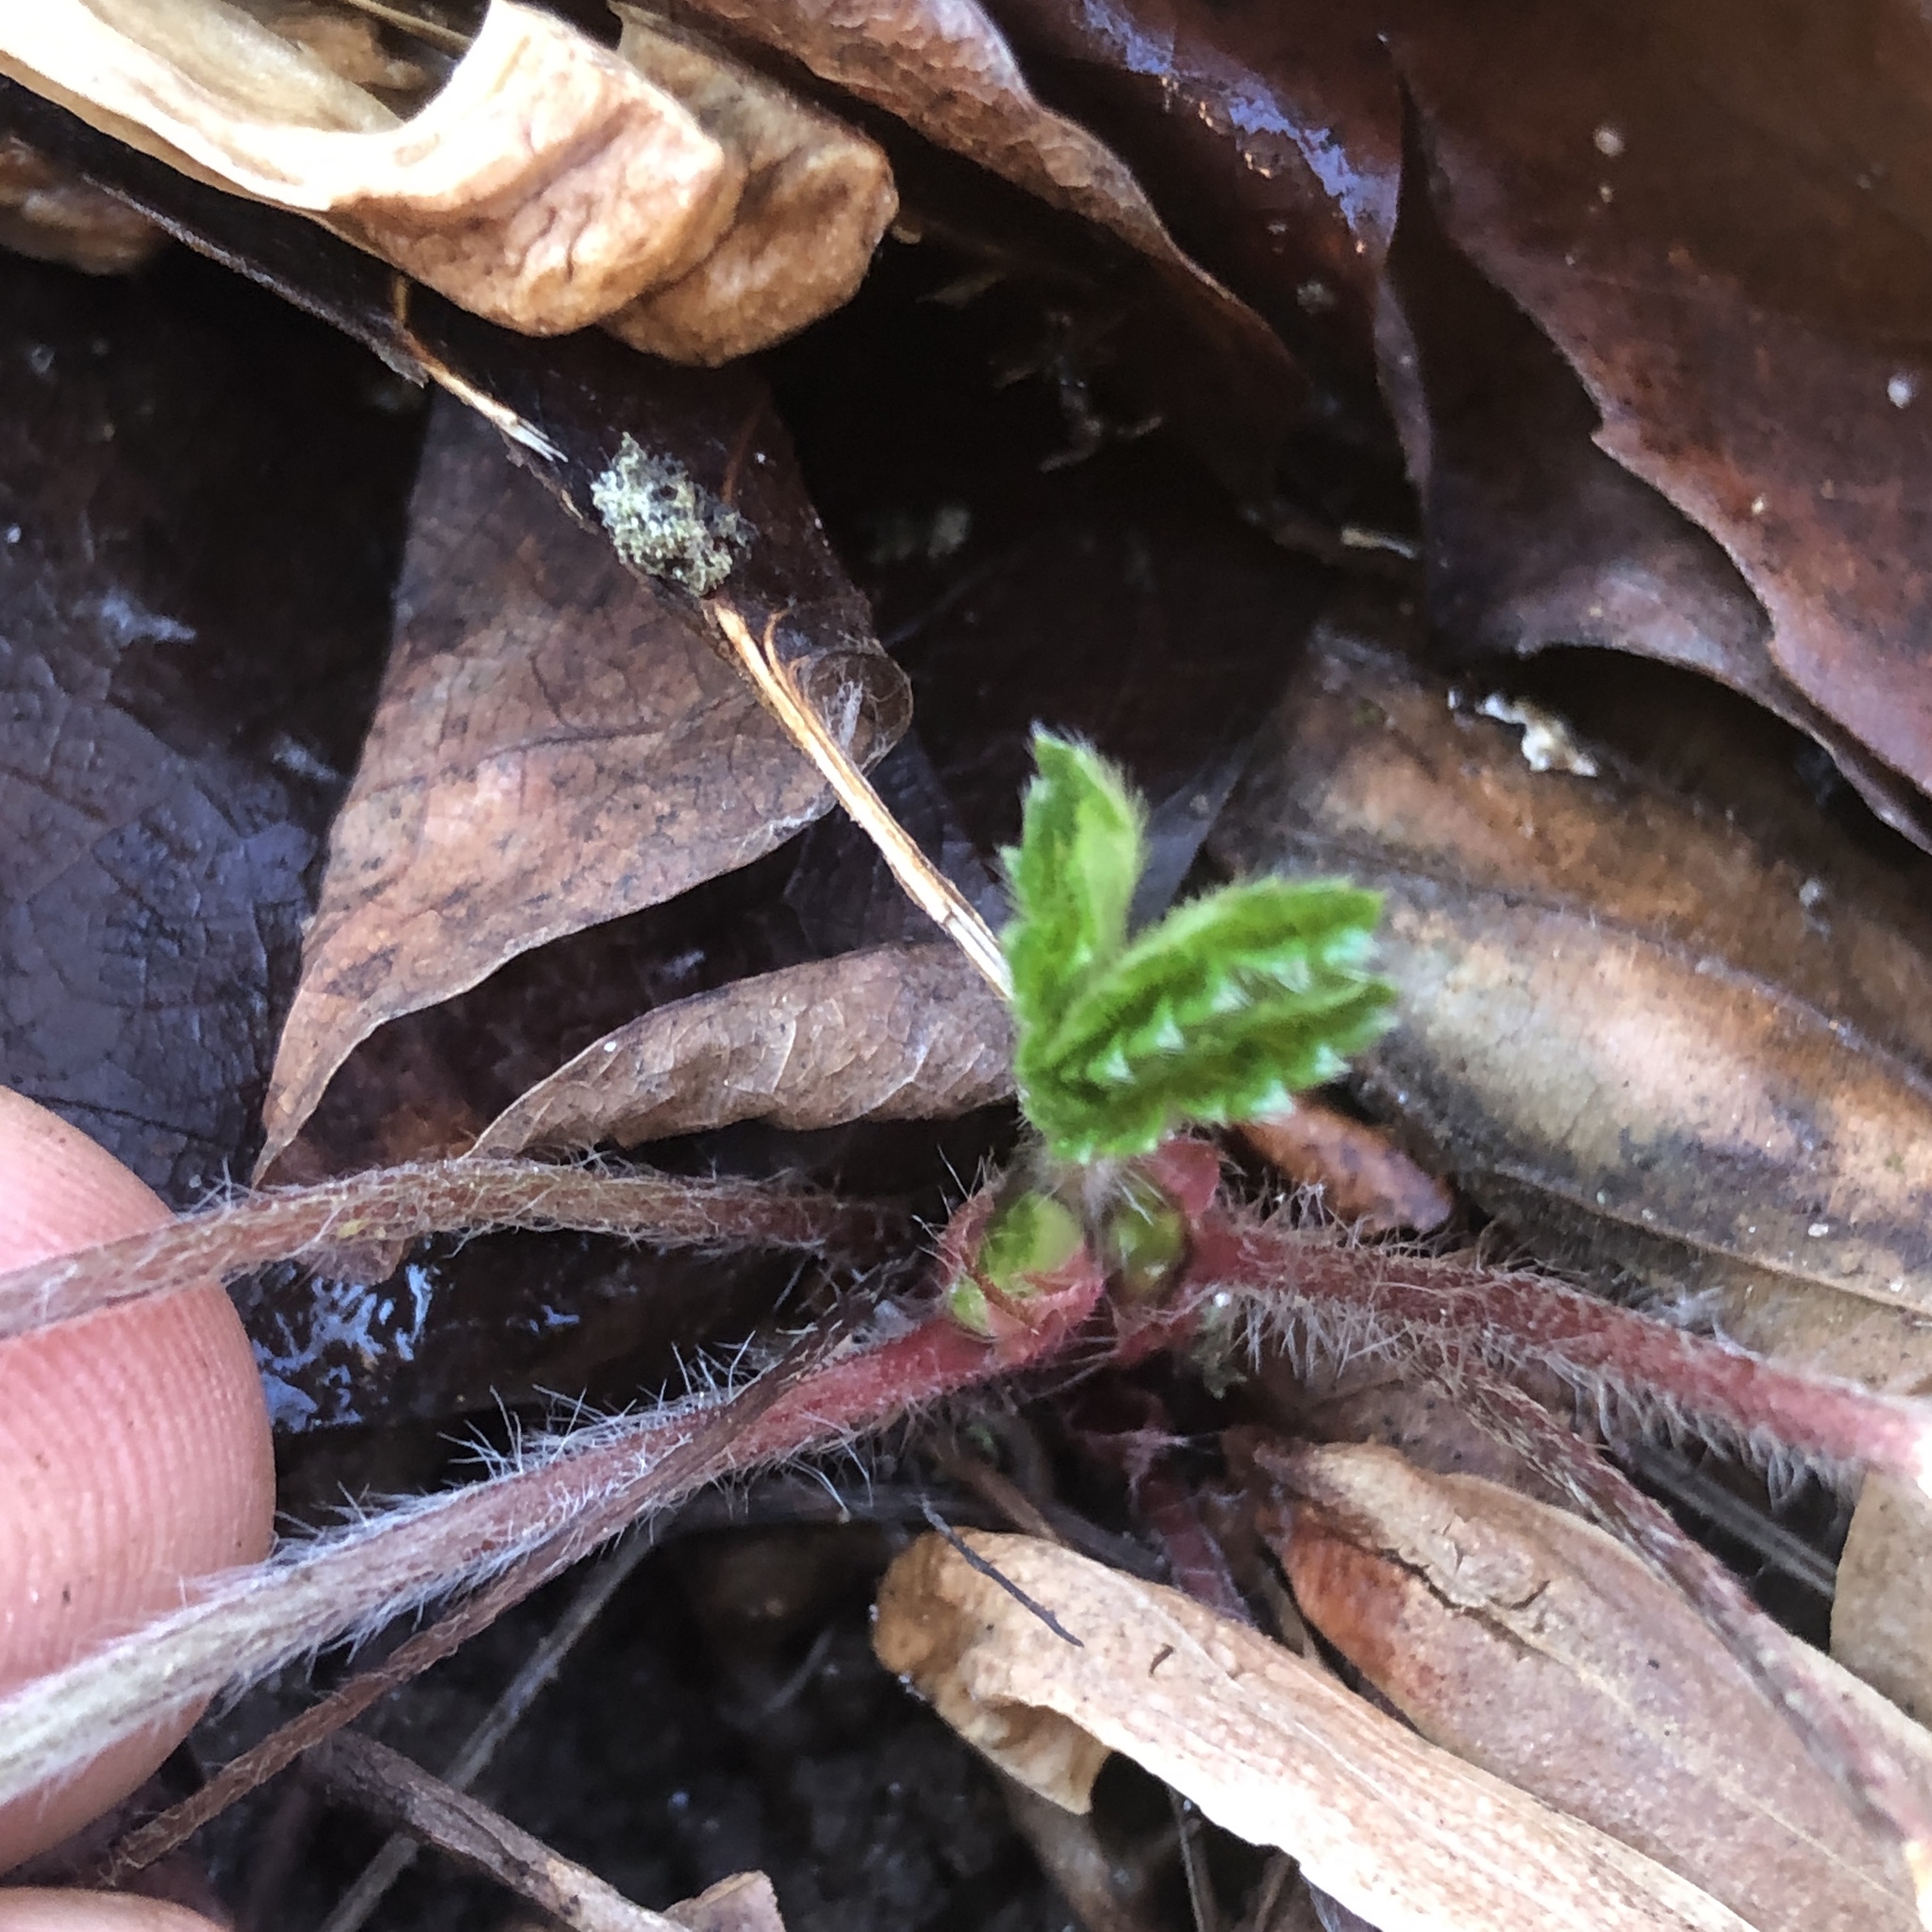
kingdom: Plantae
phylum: Tracheophyta
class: Magnoliopsida
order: Rosales
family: Rosaceae
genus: Potentilla
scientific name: Potentilla indica
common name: Yellow-flowered strawberry
